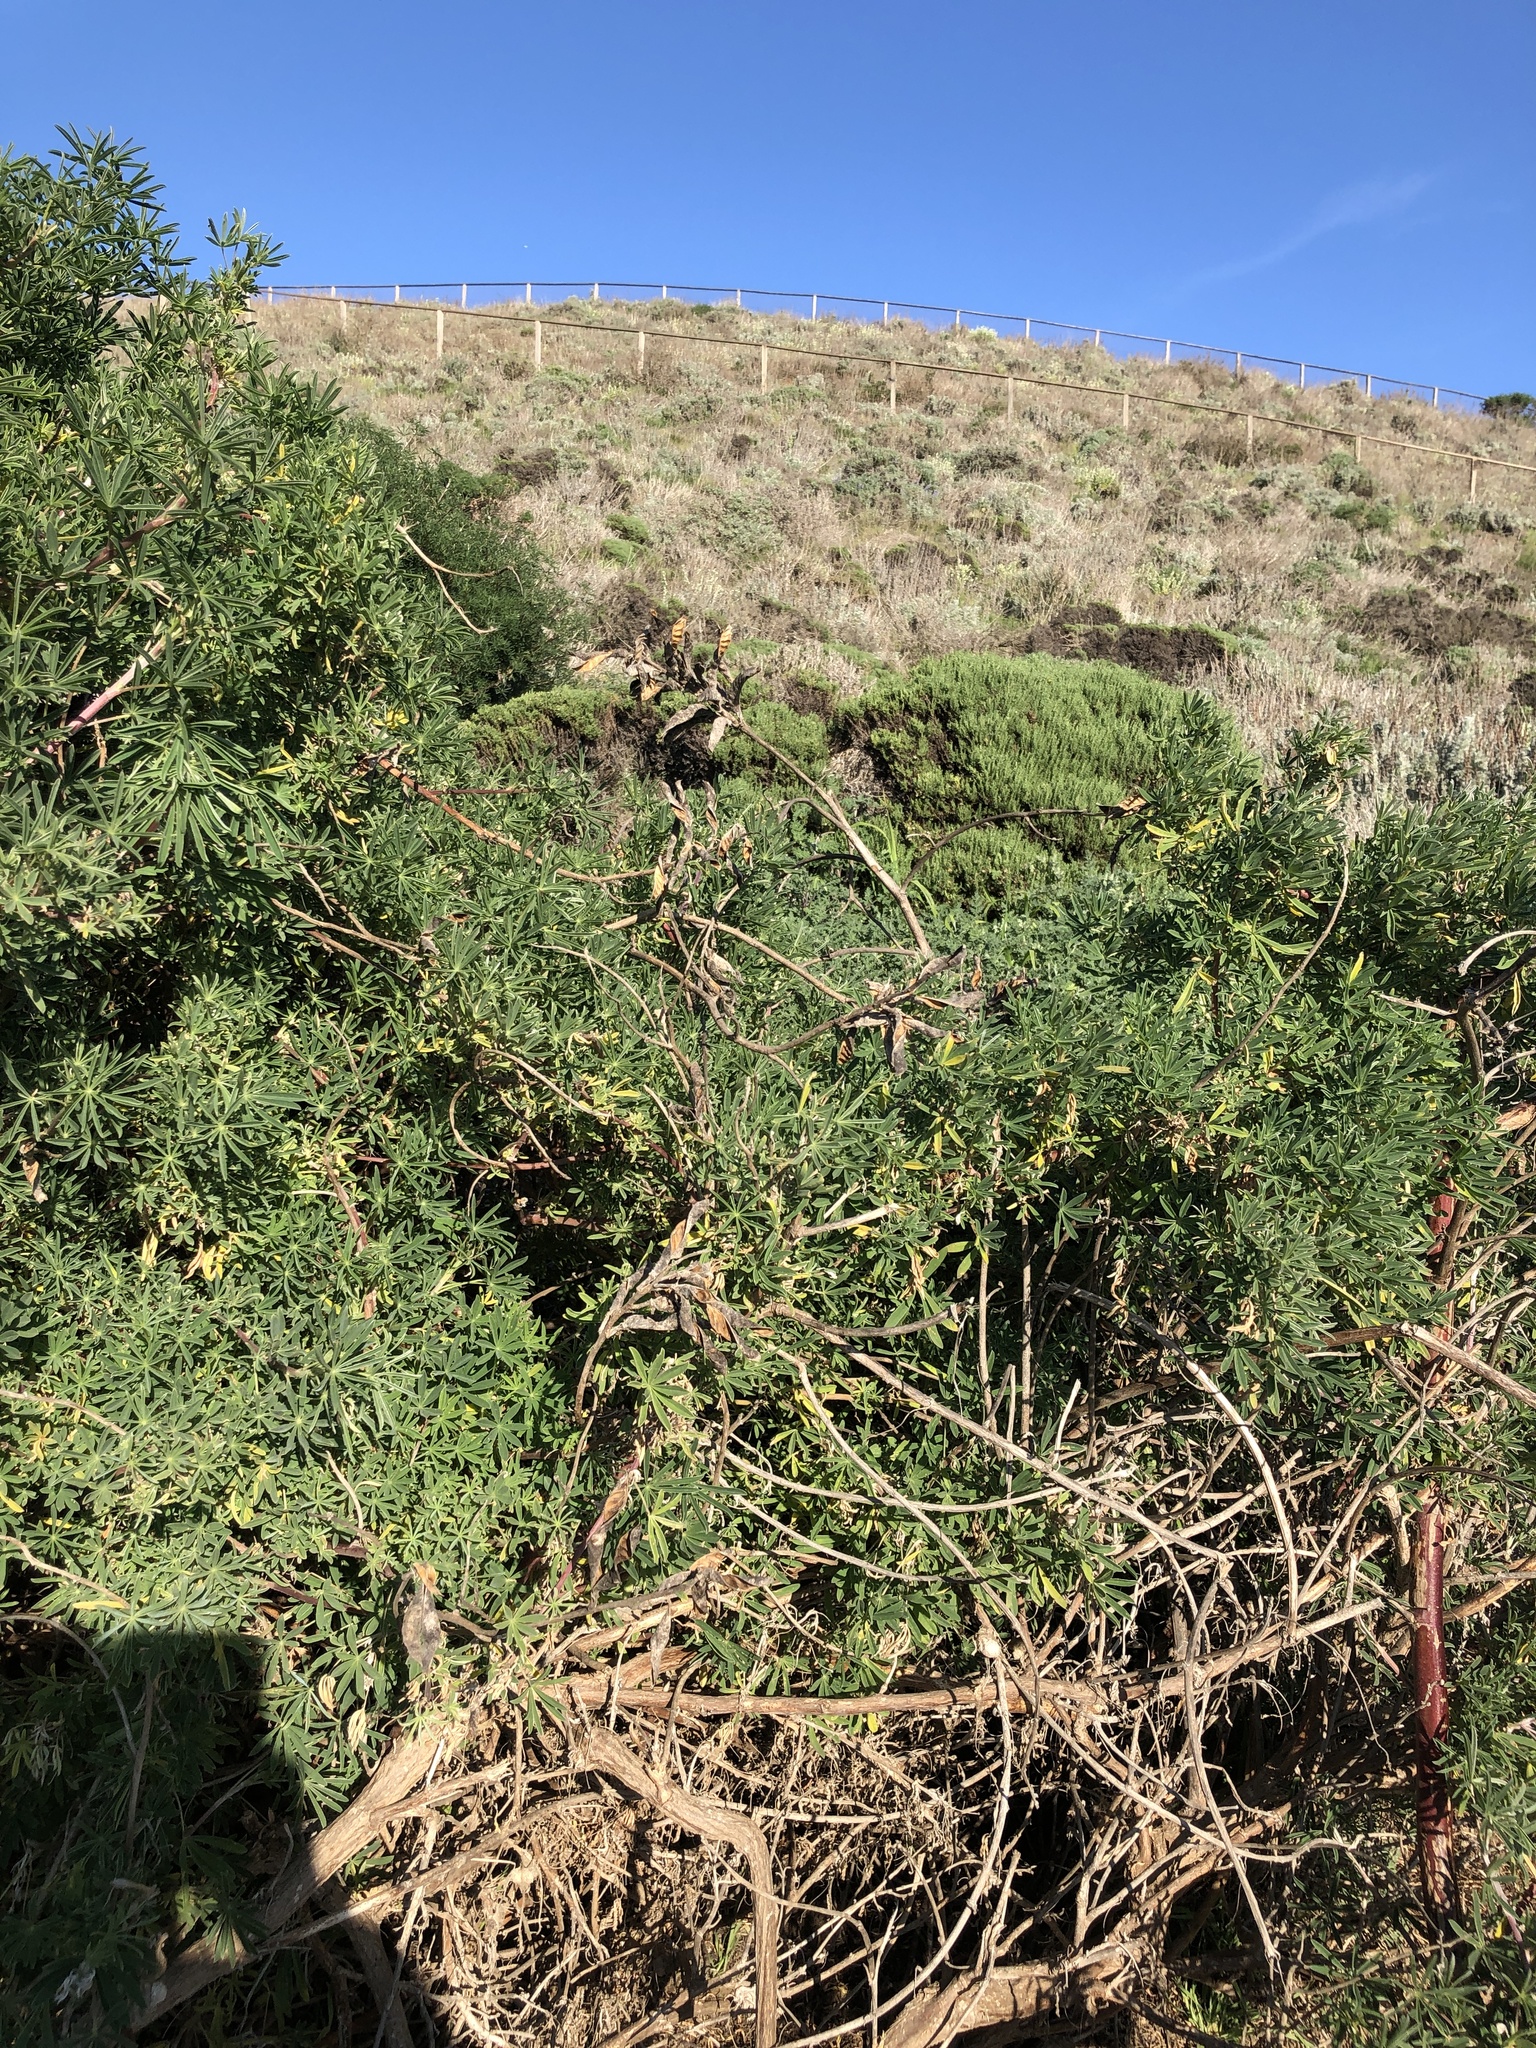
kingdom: Plantae
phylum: Tracheophyta
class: Magnoliopsida
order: Fabales
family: Fabaceae
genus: Lupinus
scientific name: Lupinus arboreus
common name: Yellow bush lupine
